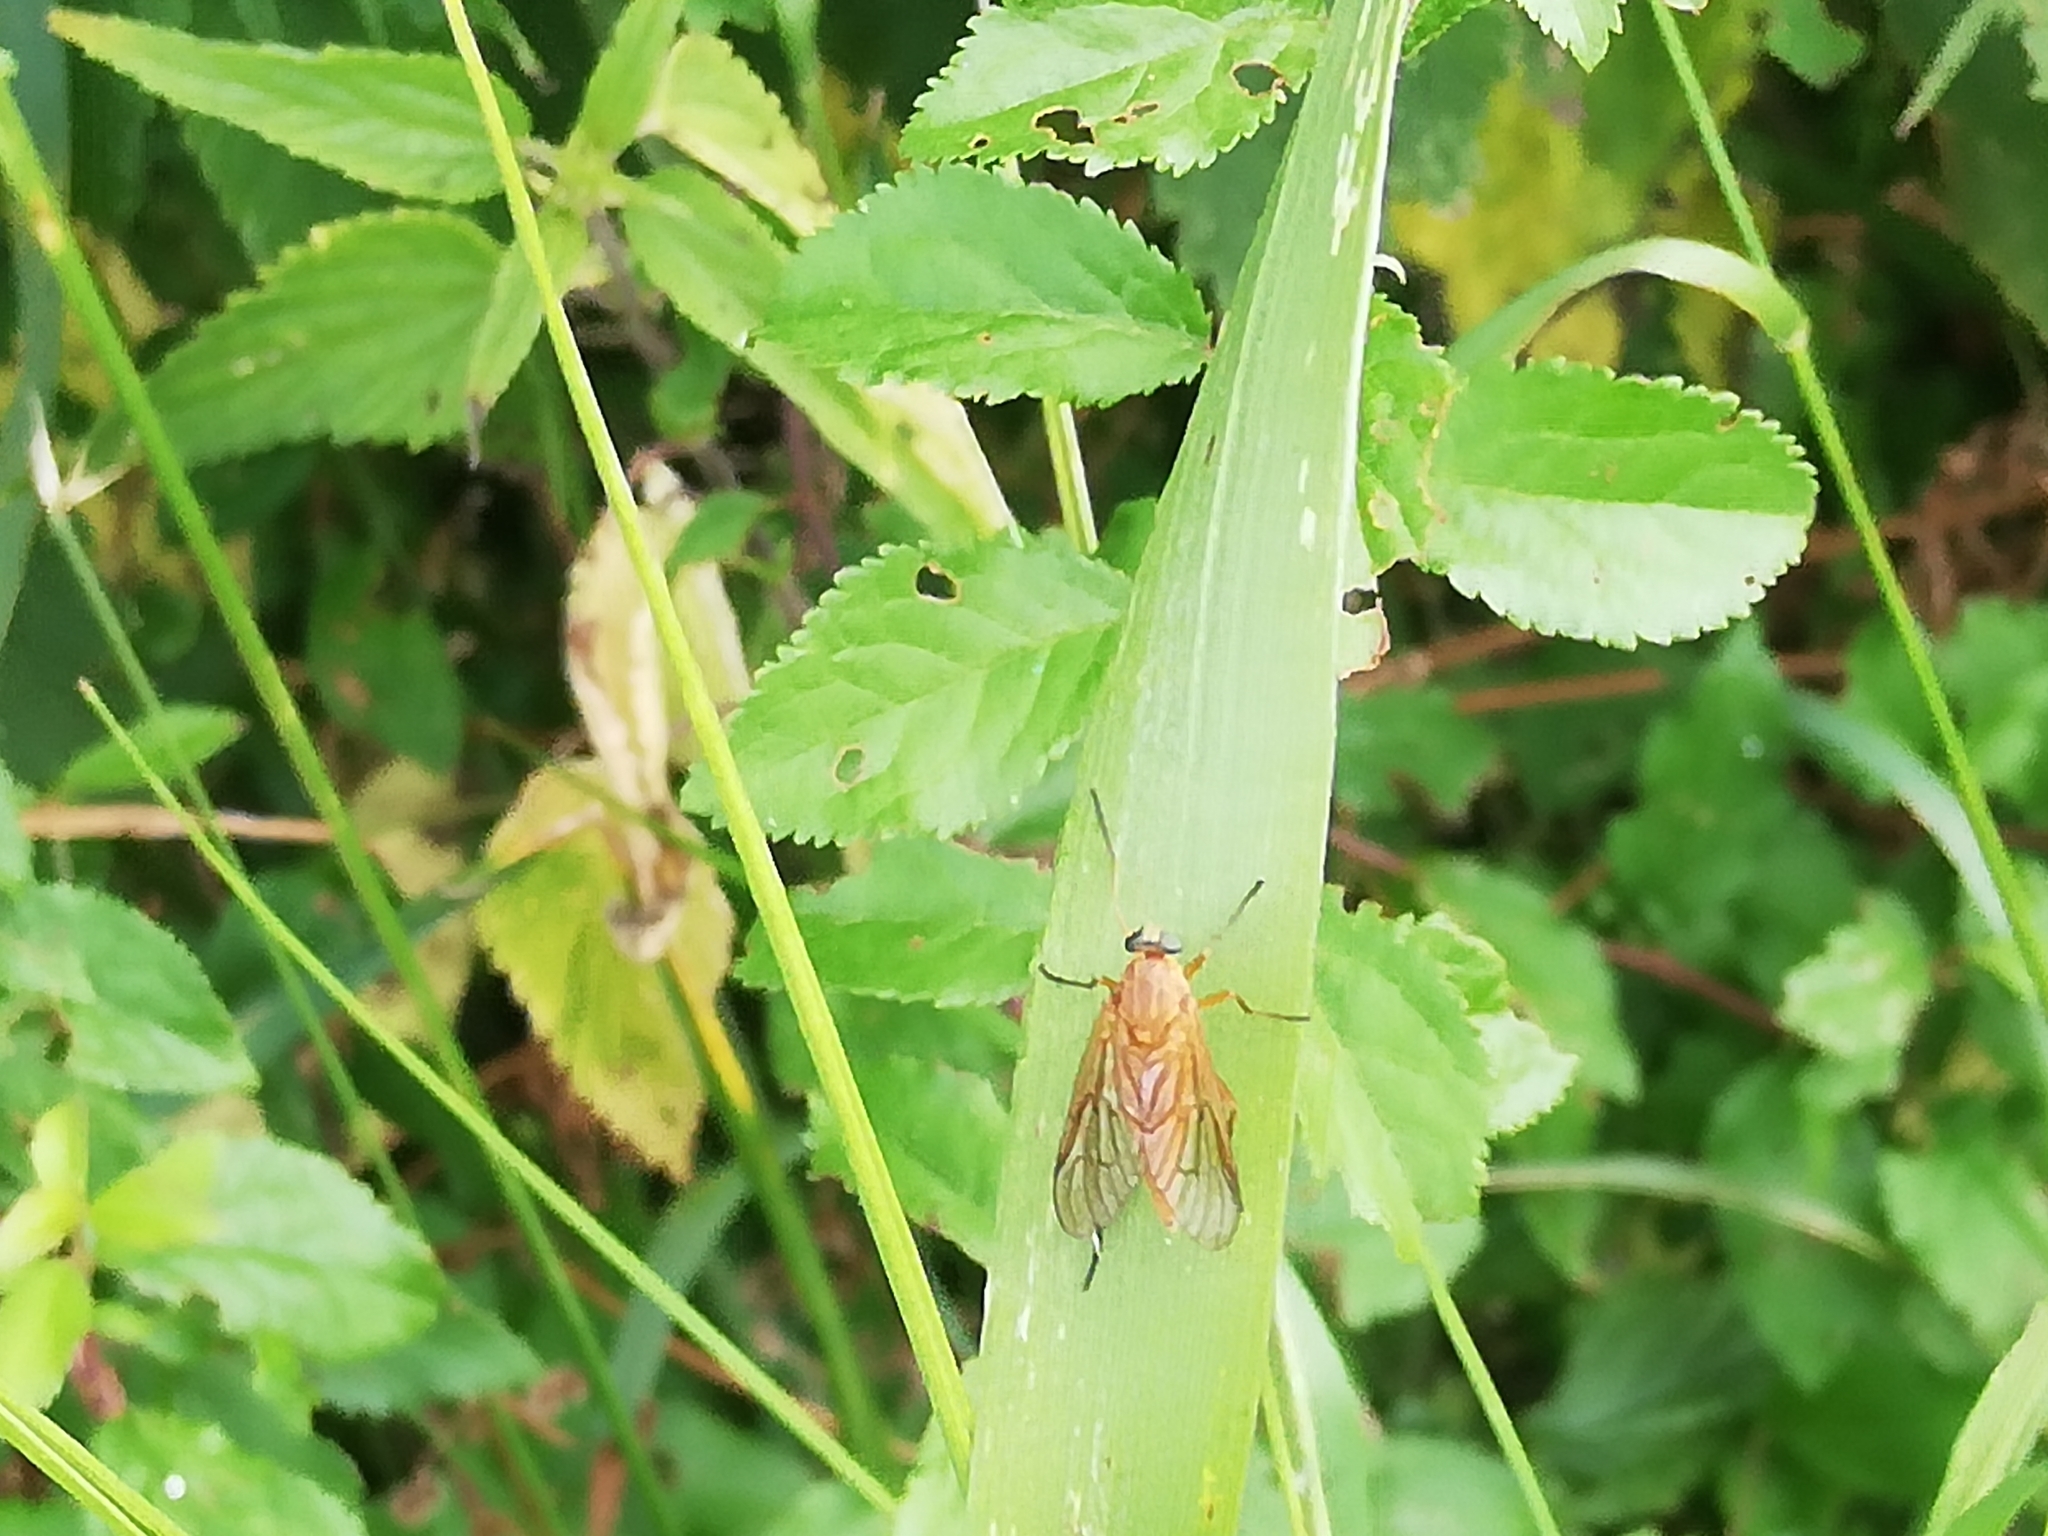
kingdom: Animalia
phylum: Arthropoda
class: Insecta
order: Diptera
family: Rhagionidae
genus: Rhagio
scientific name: Rhagio tringaria
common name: Marsh snipefly
